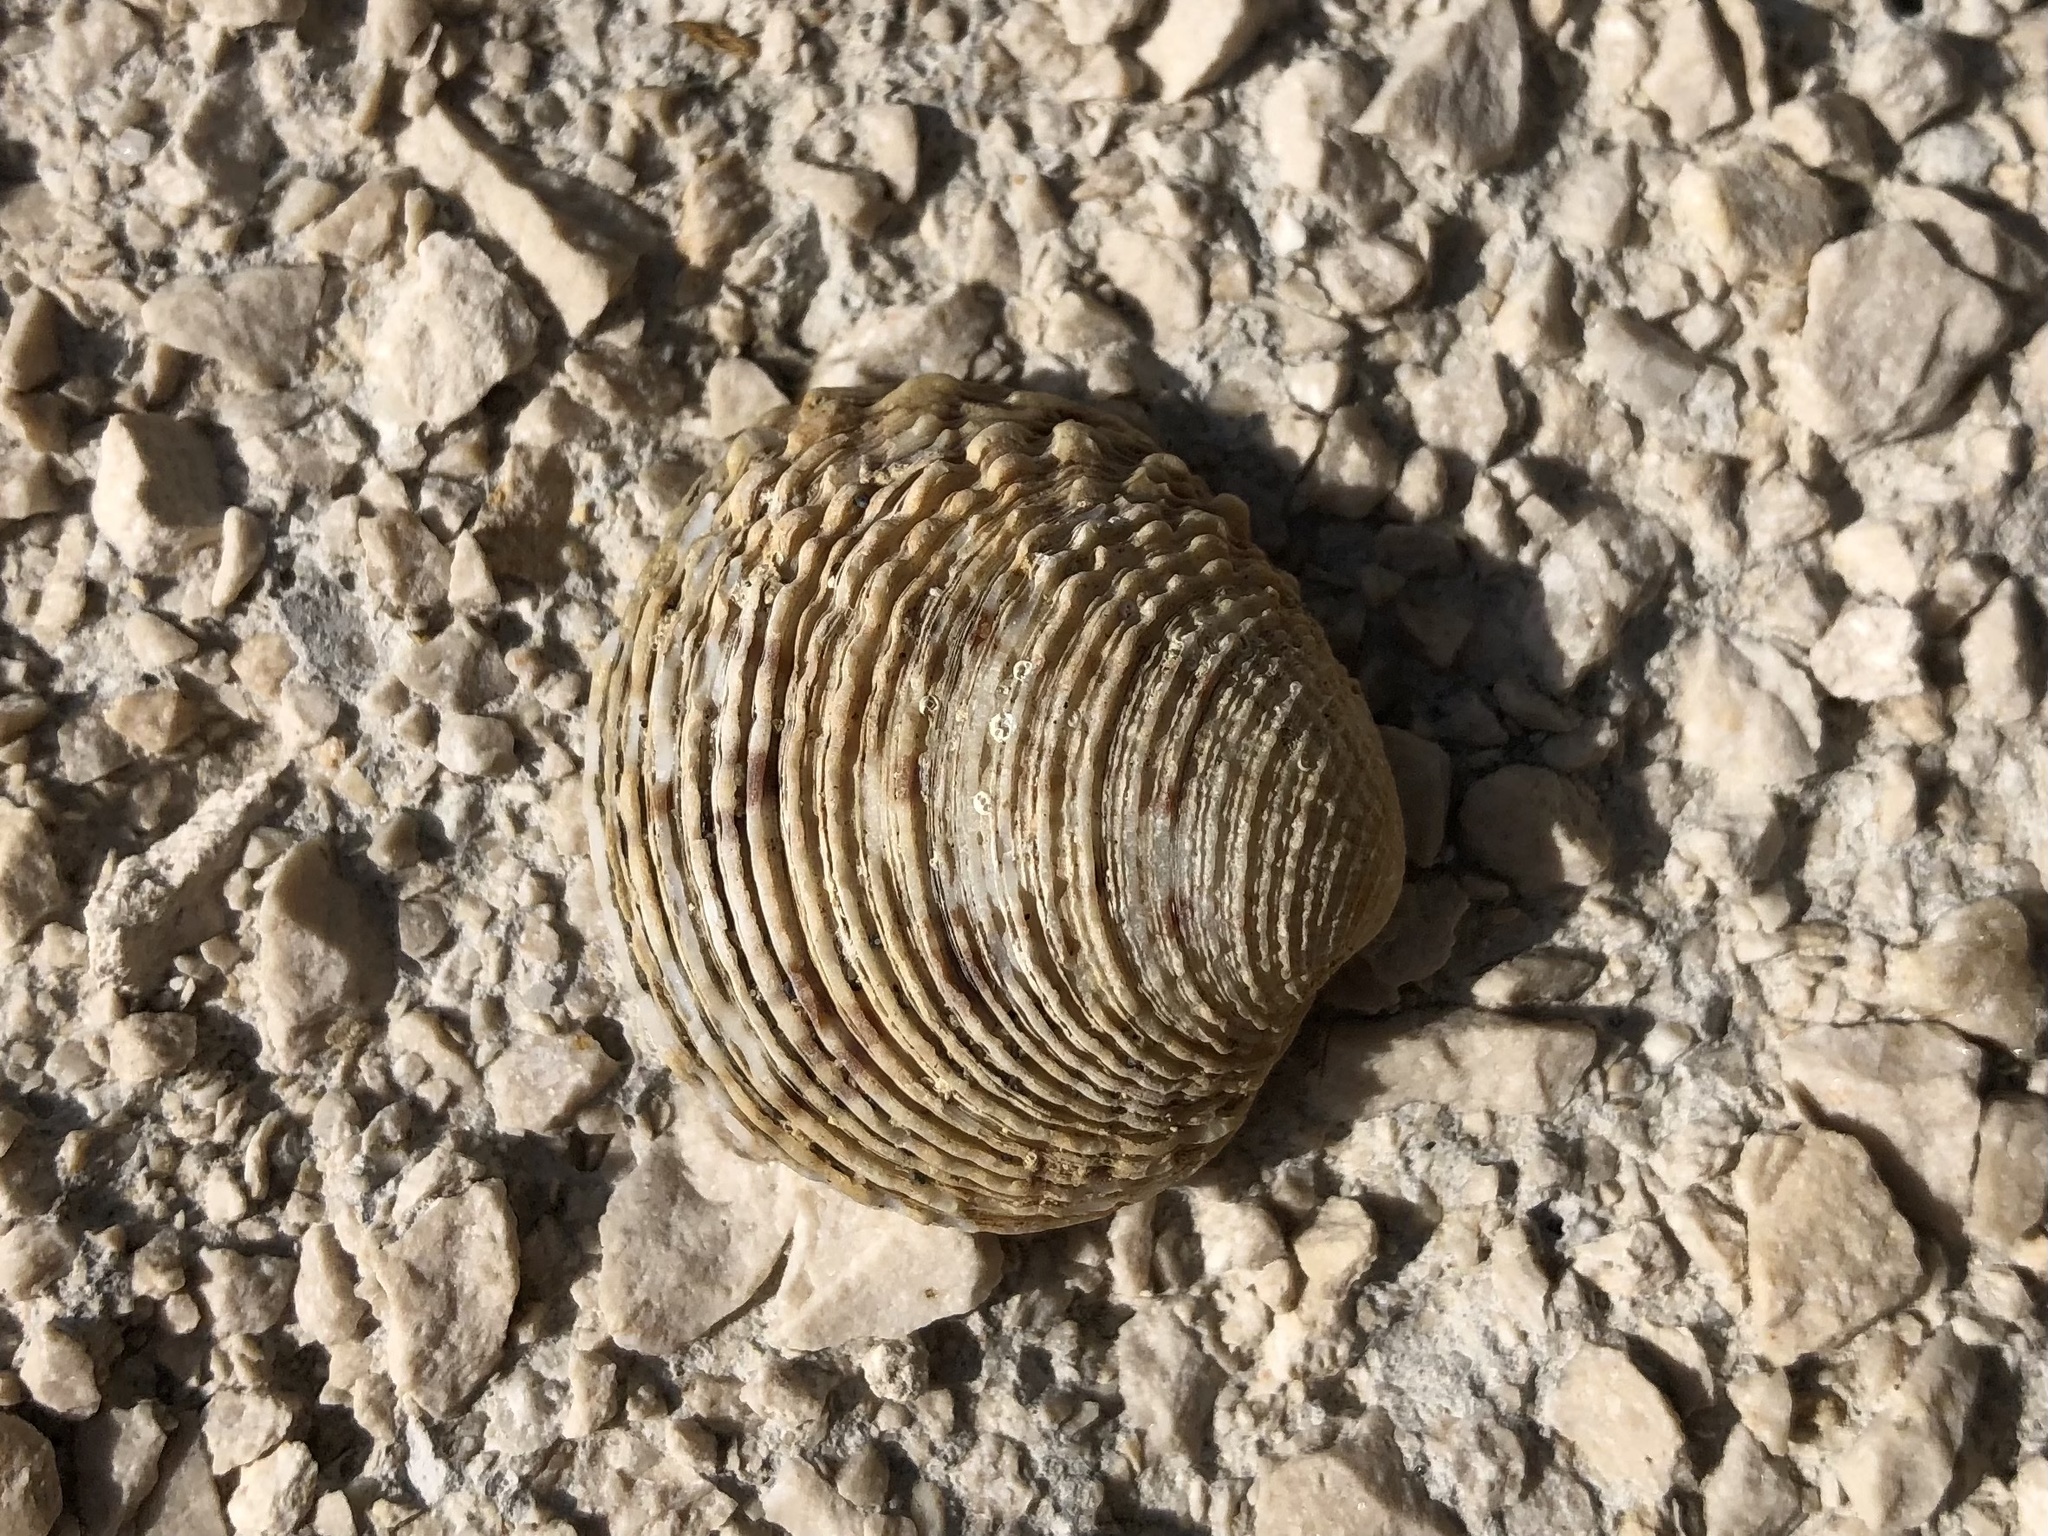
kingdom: Animalia
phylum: Mollusca
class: Bivalvia
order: Venerida
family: Veneridae
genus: Venus
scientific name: Venus verrucosa
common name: Warty venus
